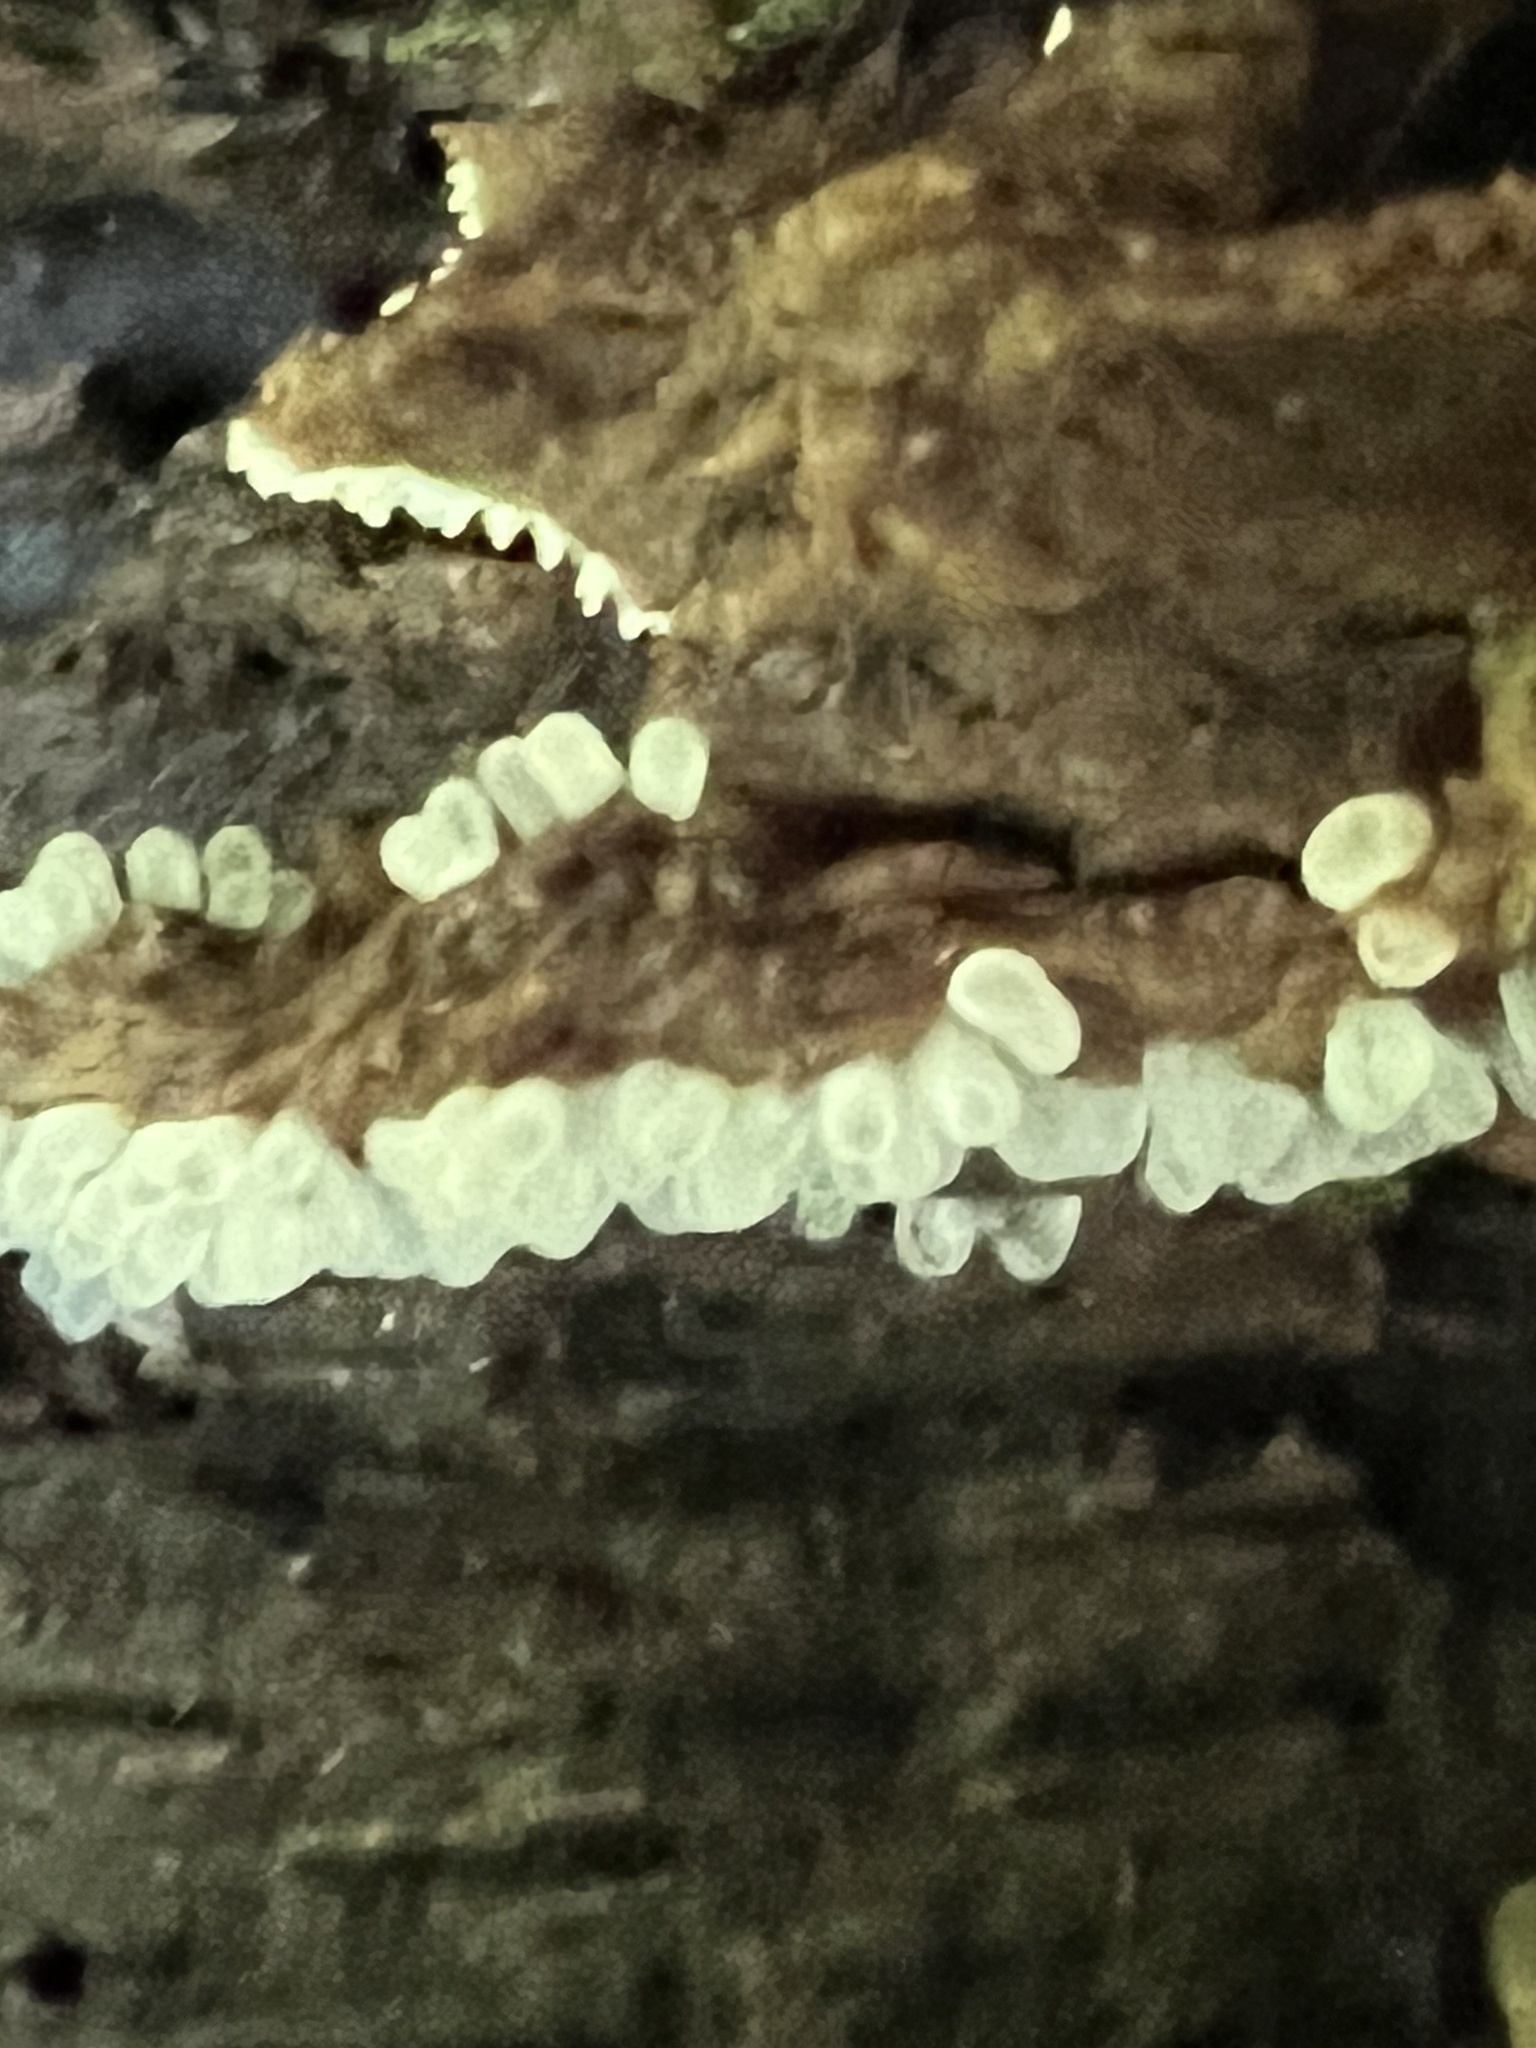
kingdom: Protozoa
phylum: Mycetozoa
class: Protosteliomycetes
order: Ceratiomyxales
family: Ceratiomyxaceae
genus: Ceratiomyxa
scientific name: Ceratiomyxa fruticulosa
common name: Honeycomb coral slime mold
